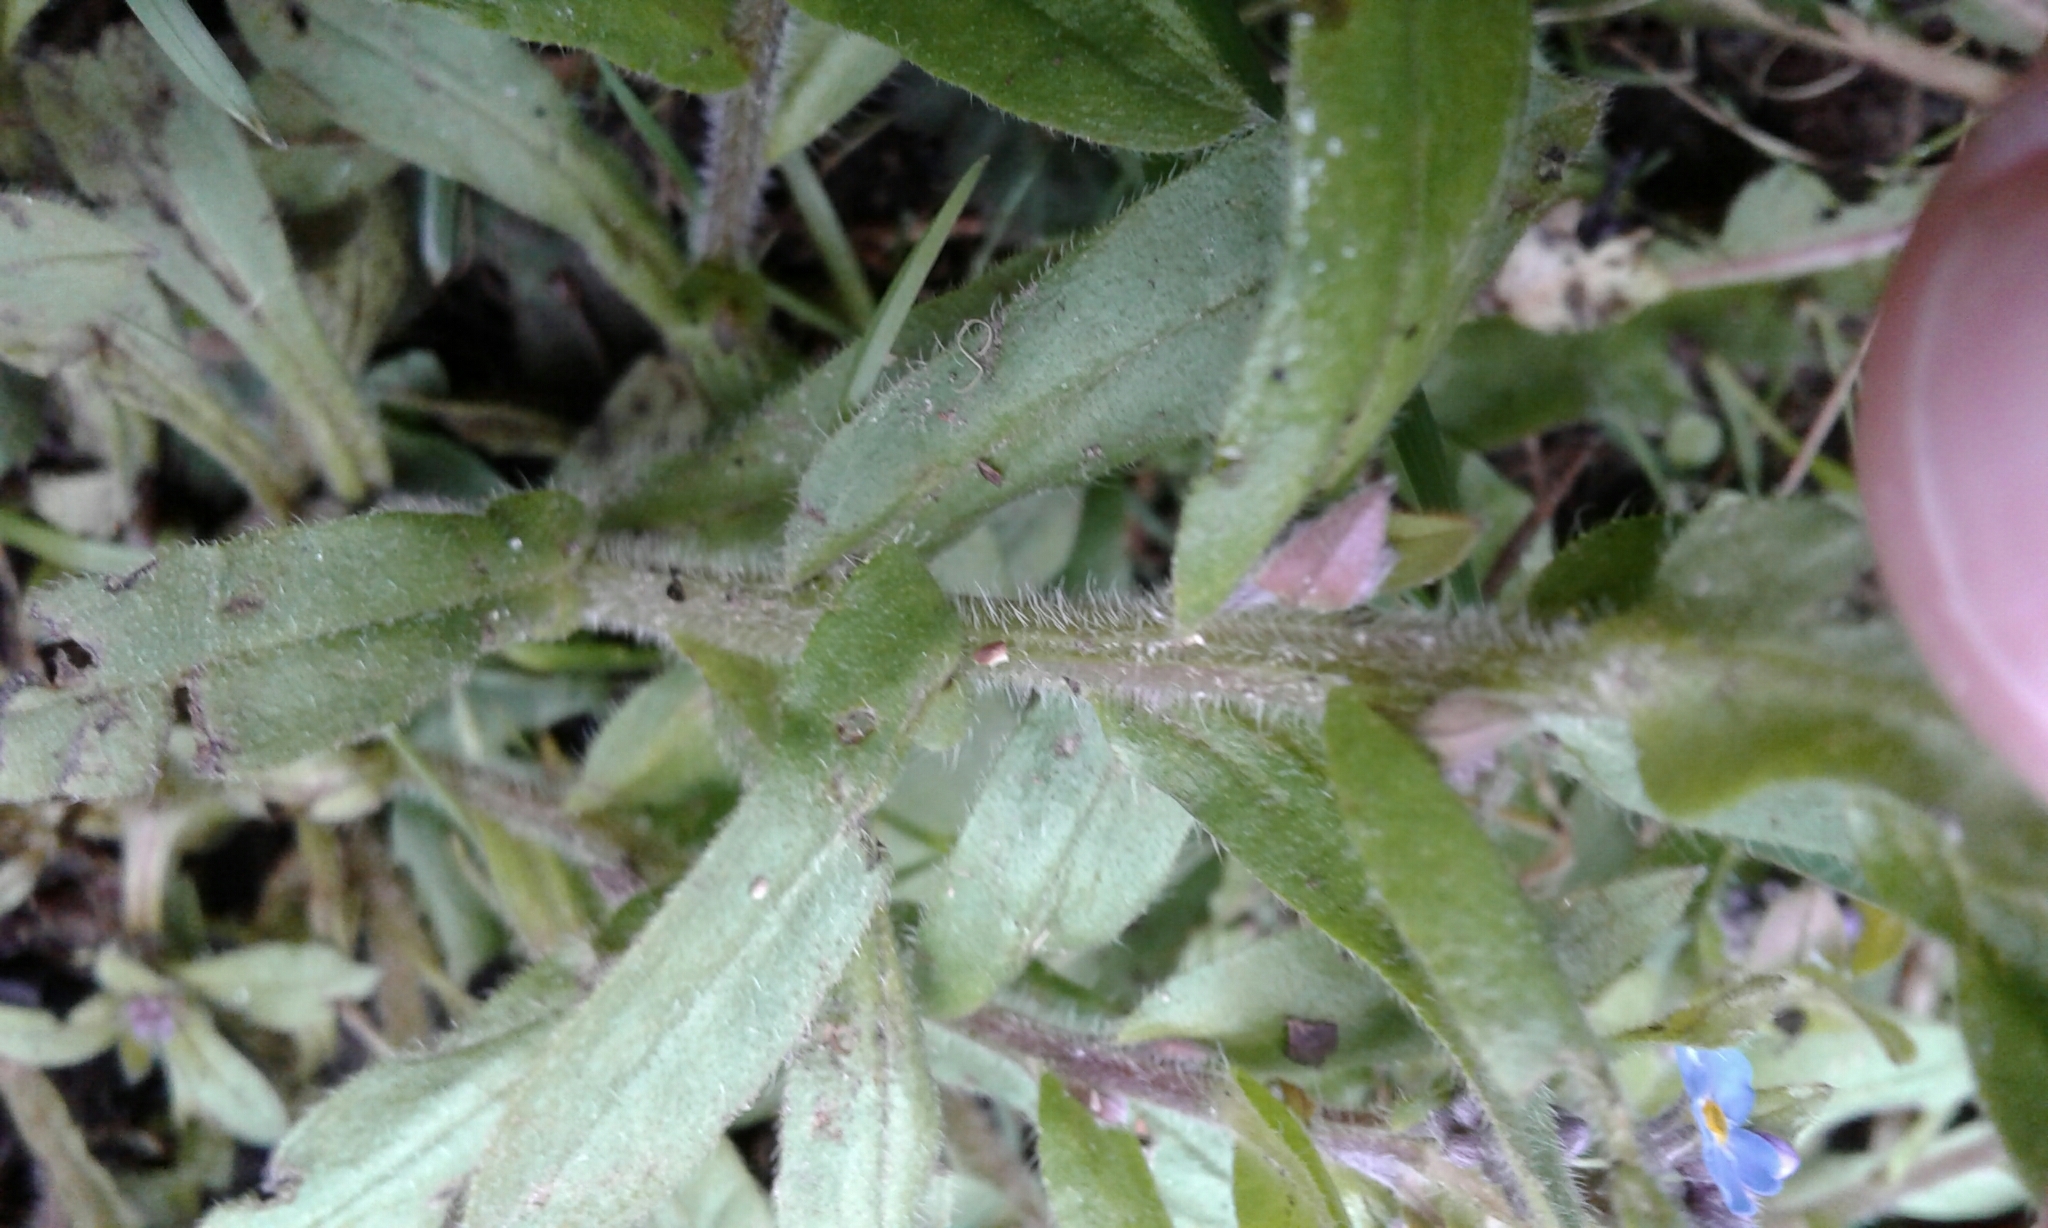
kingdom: Plantae
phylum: Tracheophyta
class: Magnoliopsida
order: Boraginales
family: Boraginaceae
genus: Myosotis
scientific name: Myosotis sylvatica
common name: Wood forget-me-not
